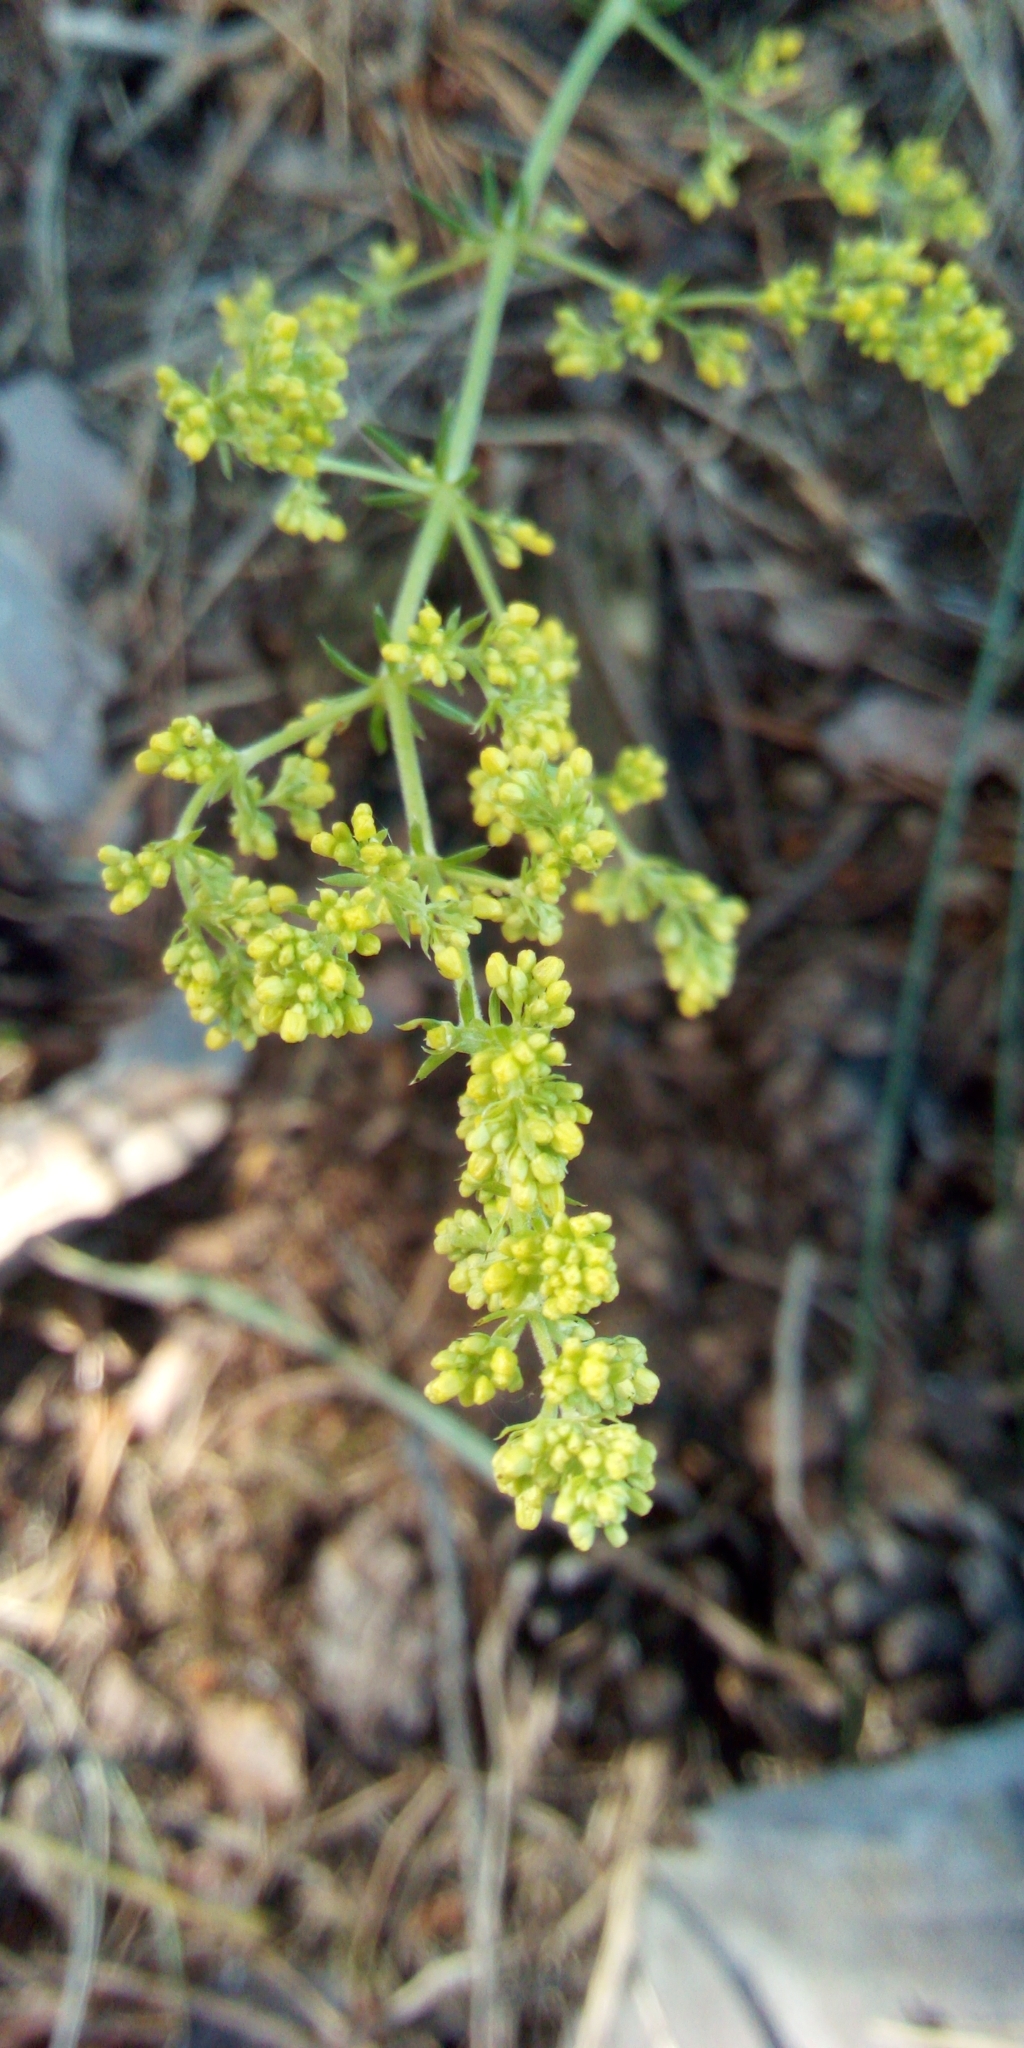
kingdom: Plantae
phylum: Tracheophyta
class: Magnoliopsida
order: Gentianales
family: Rubiaceae
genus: Galium
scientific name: Galium verum
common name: Lady's bedstraw
